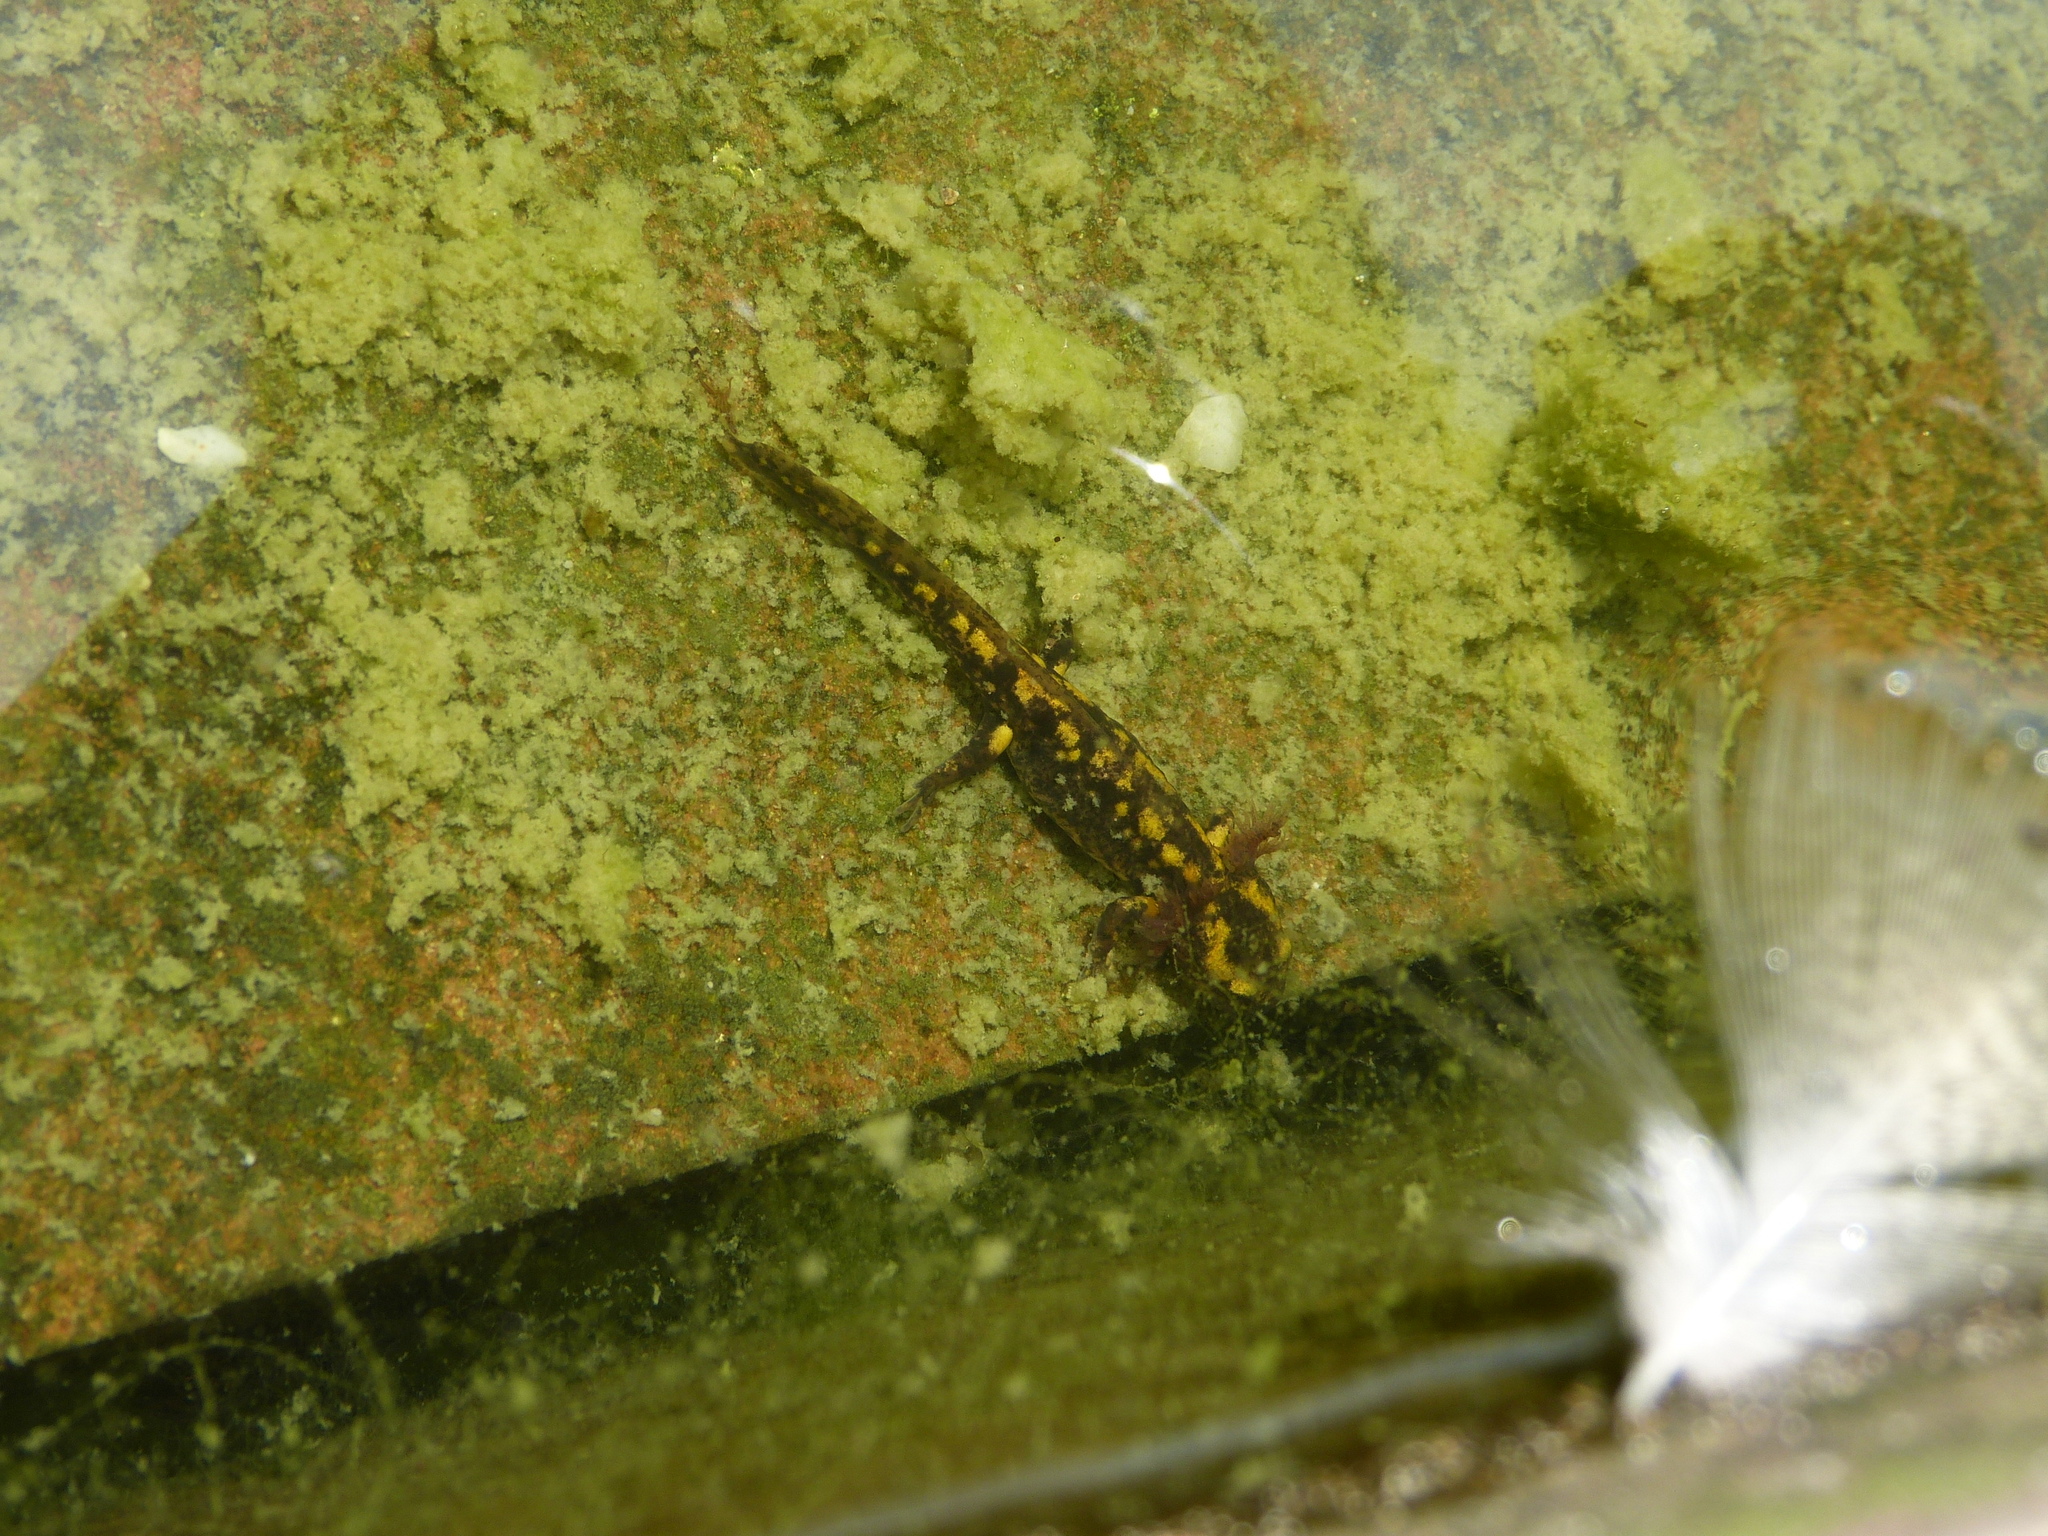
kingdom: Animalia
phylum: Chordata
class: Amphibia
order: Caudata
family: Salamandridae
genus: Salamandra
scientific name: Salamandra salamandra
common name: Fire salamander
